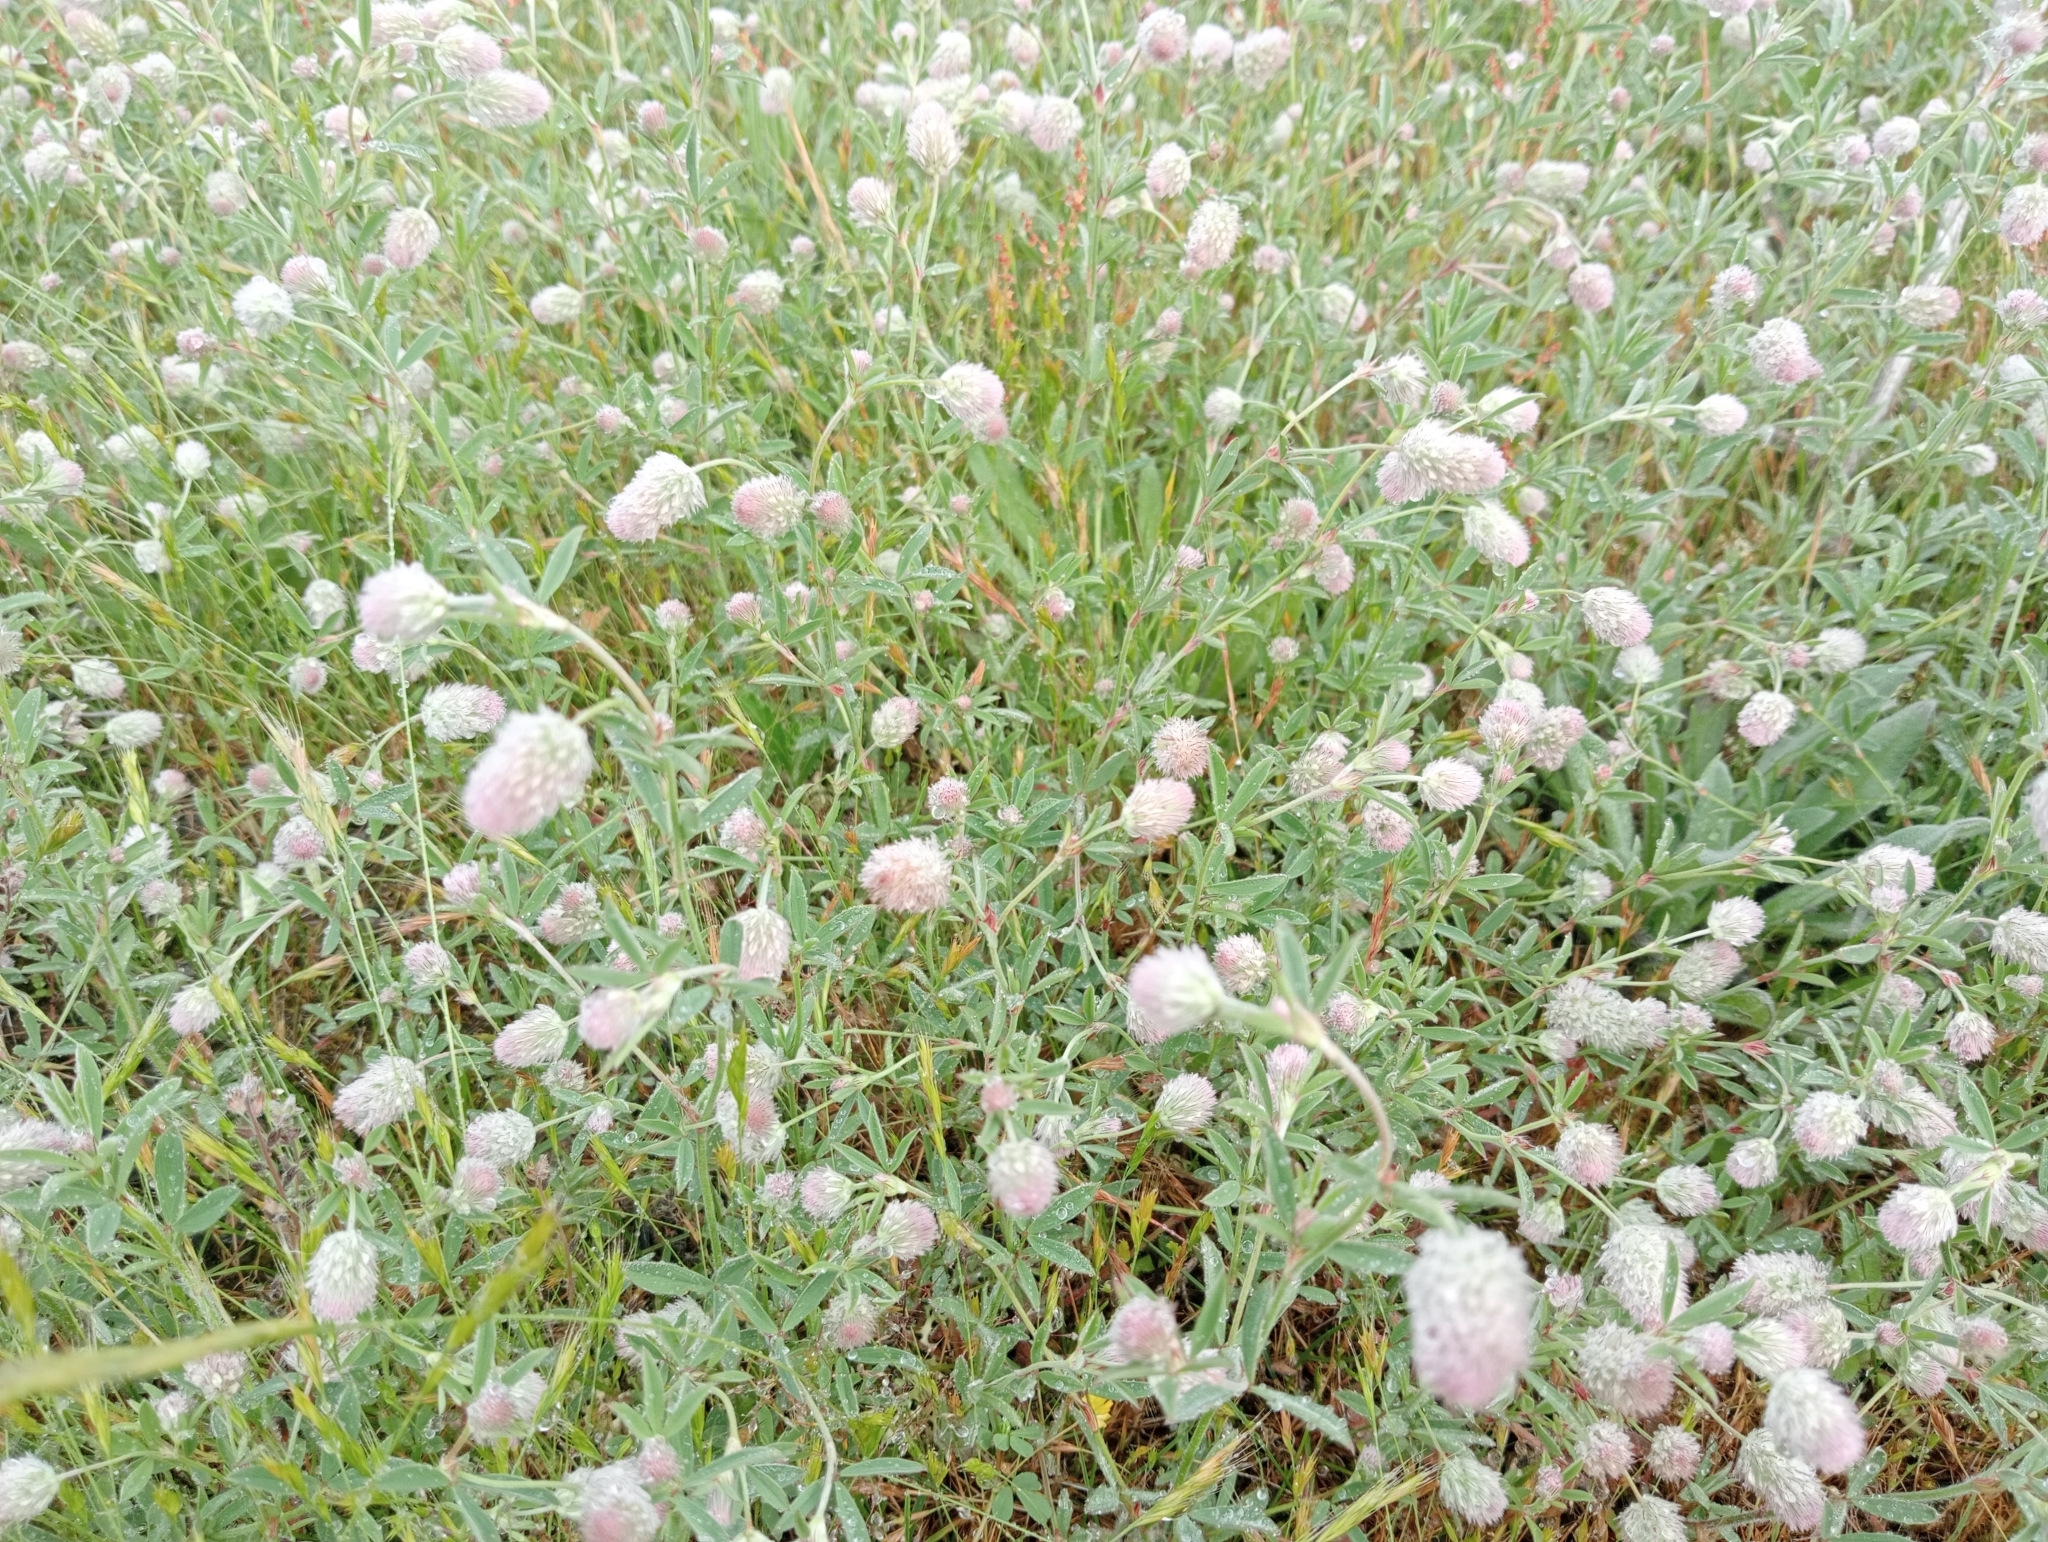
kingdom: Plantae
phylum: Tracheophyta
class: Magnoliopsida
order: Fabales
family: Fabaceae
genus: Trifolium
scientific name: Trifolium arvense
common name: Hare's-foot clover
